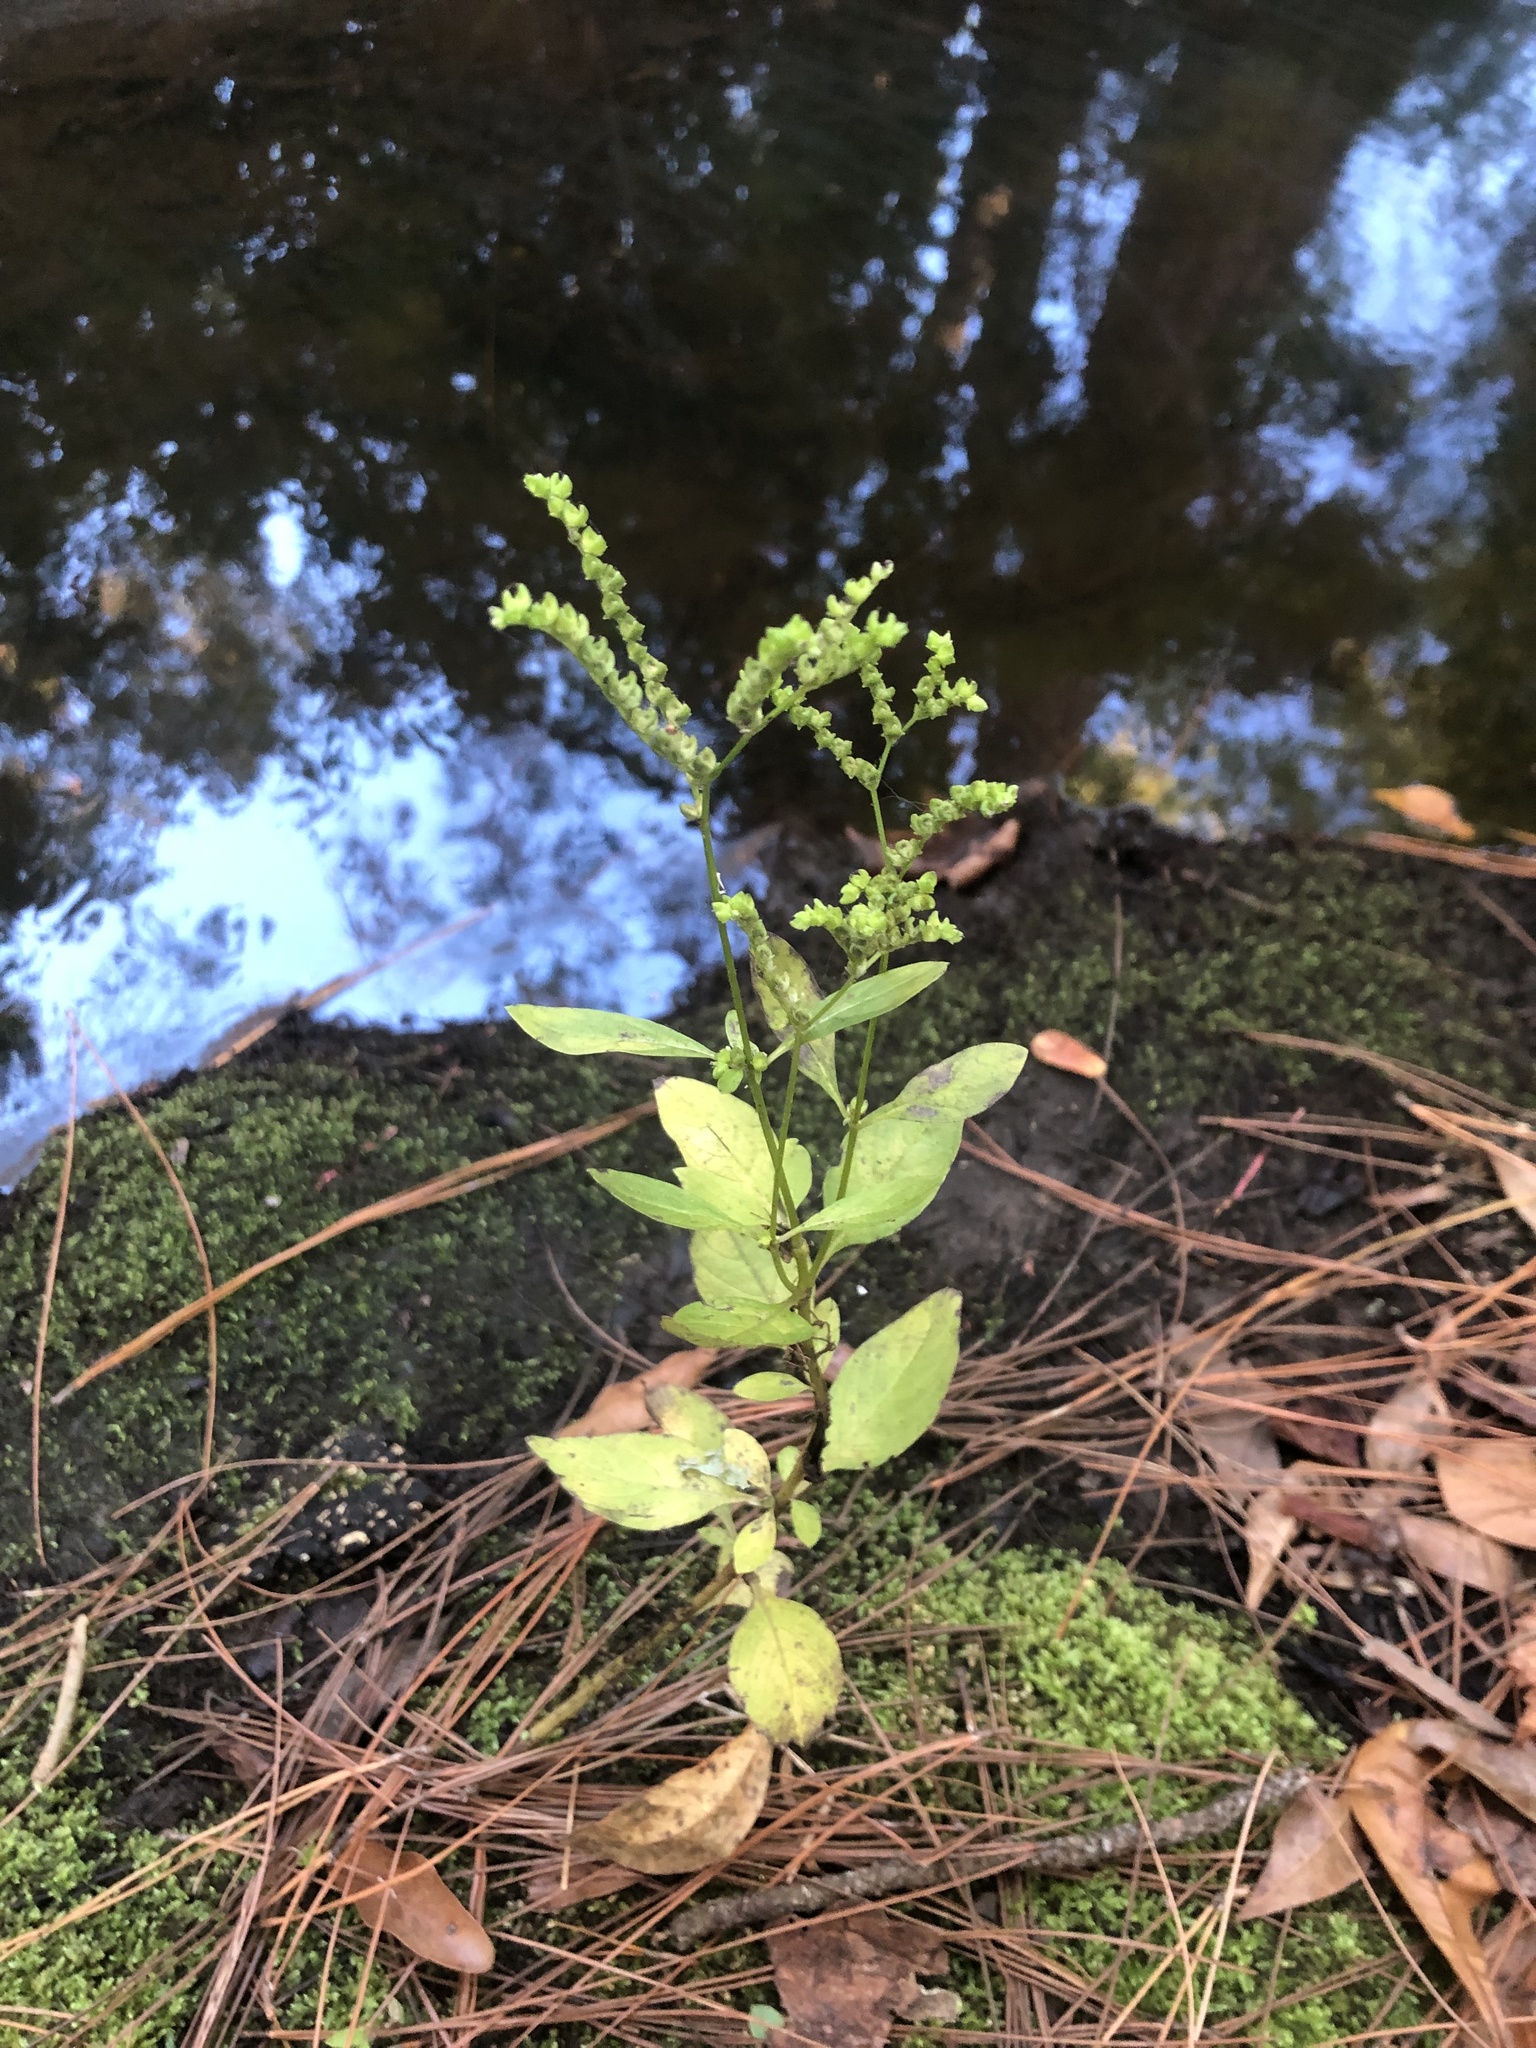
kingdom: Plantae
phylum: Tracheophyta
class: Magnoliopsida
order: Gentianales
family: Loganiaceae
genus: Mitreola
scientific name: Mitreola petiolata
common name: Lax hornpod
